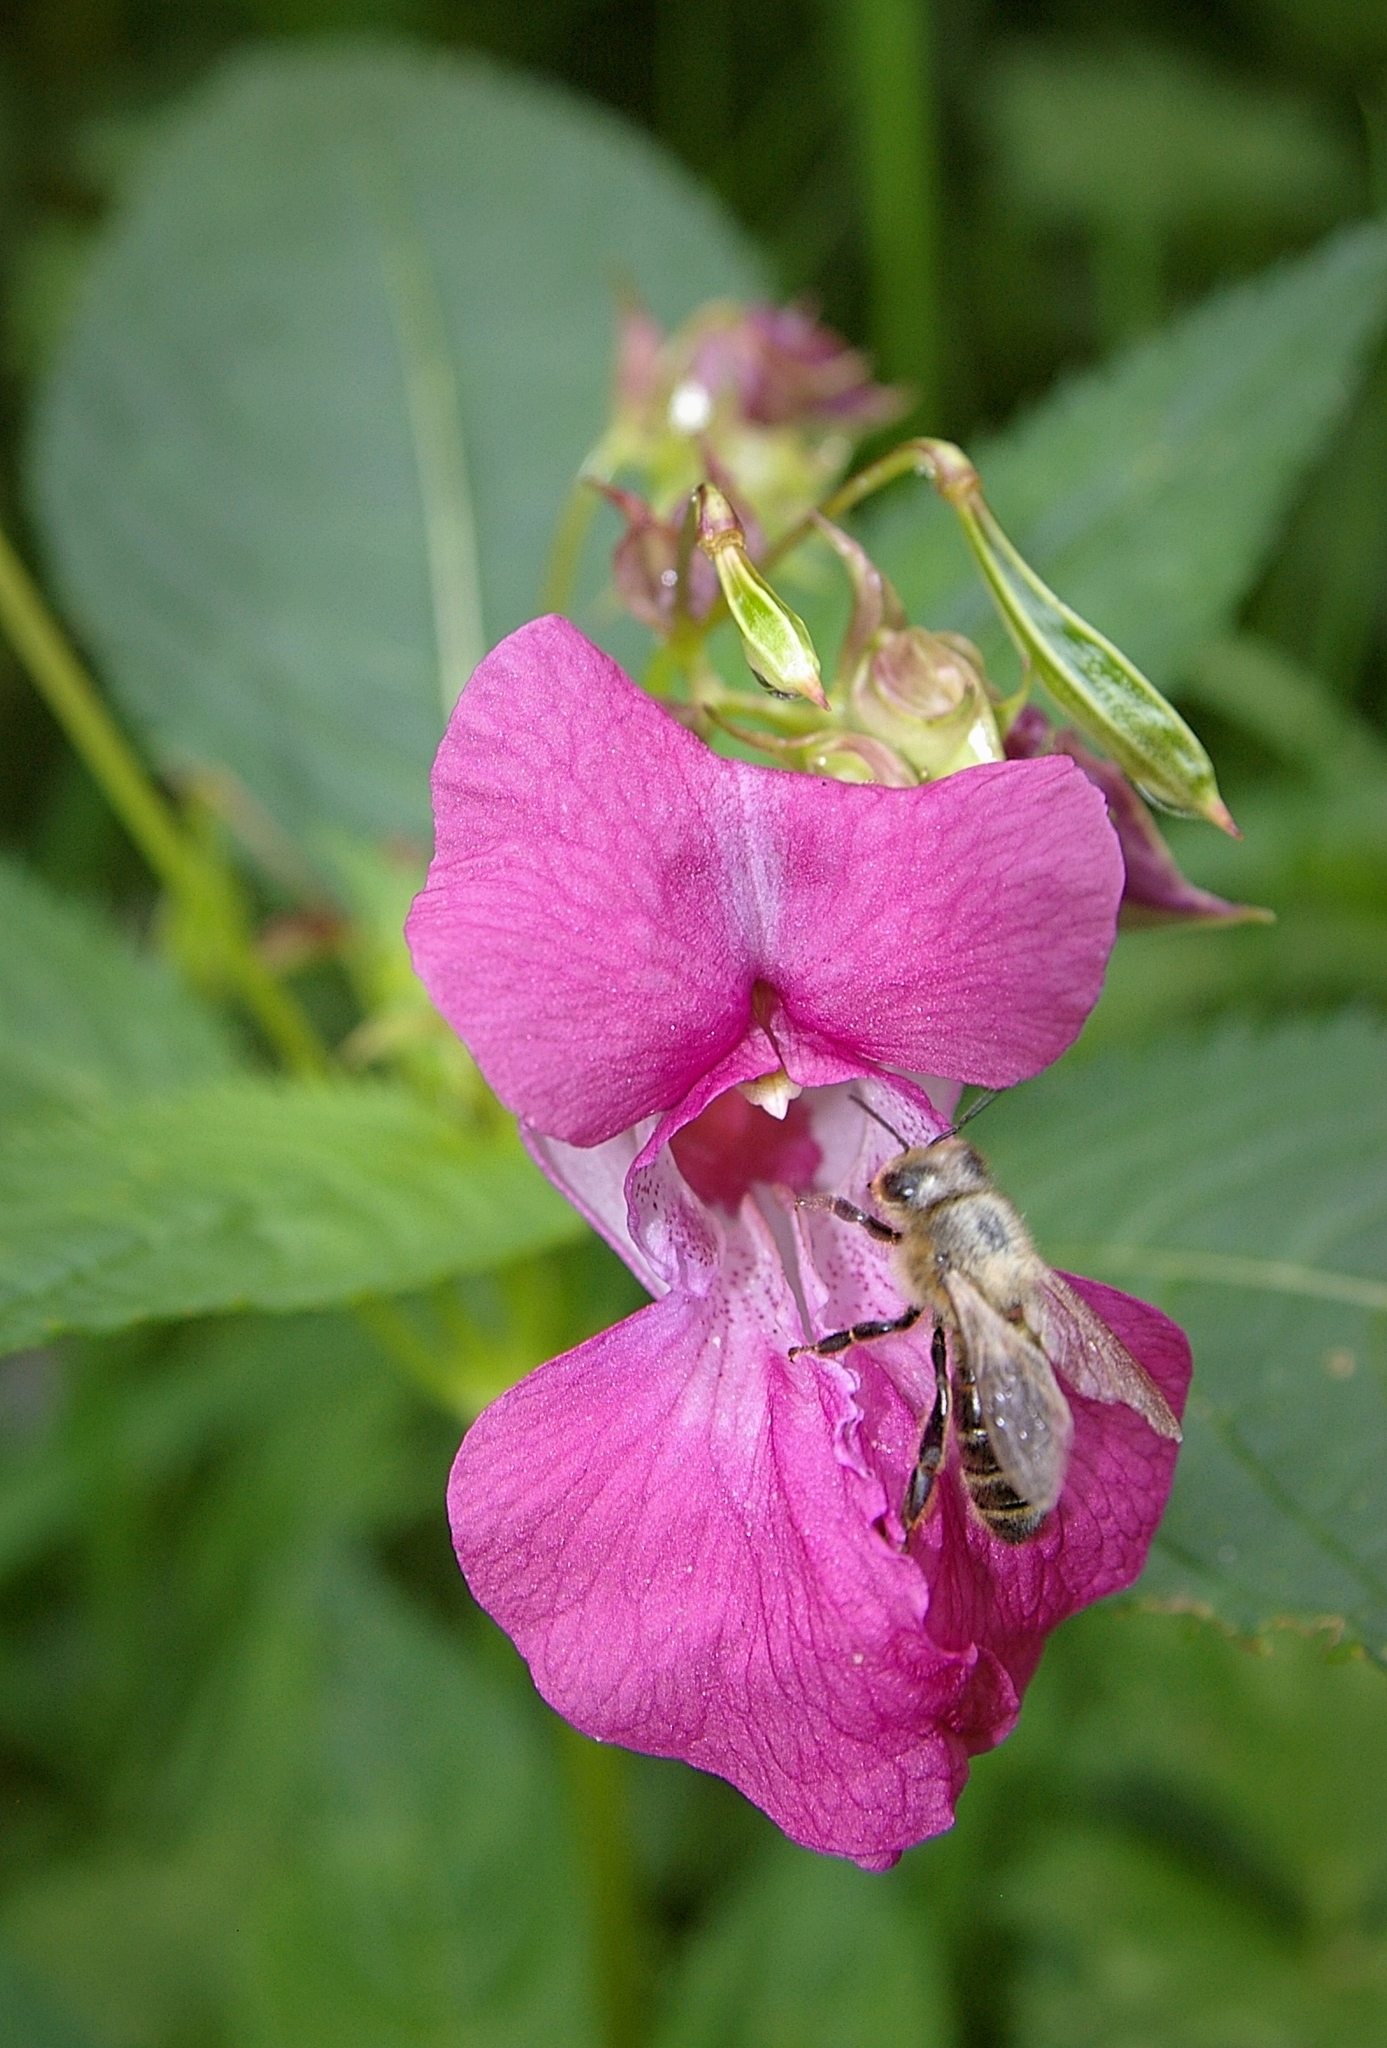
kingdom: Animalia
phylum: Arthropoda
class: Insecta
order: Hymenoptera
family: Apidae
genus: Apis
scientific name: Apis mellifera
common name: Honey bee
